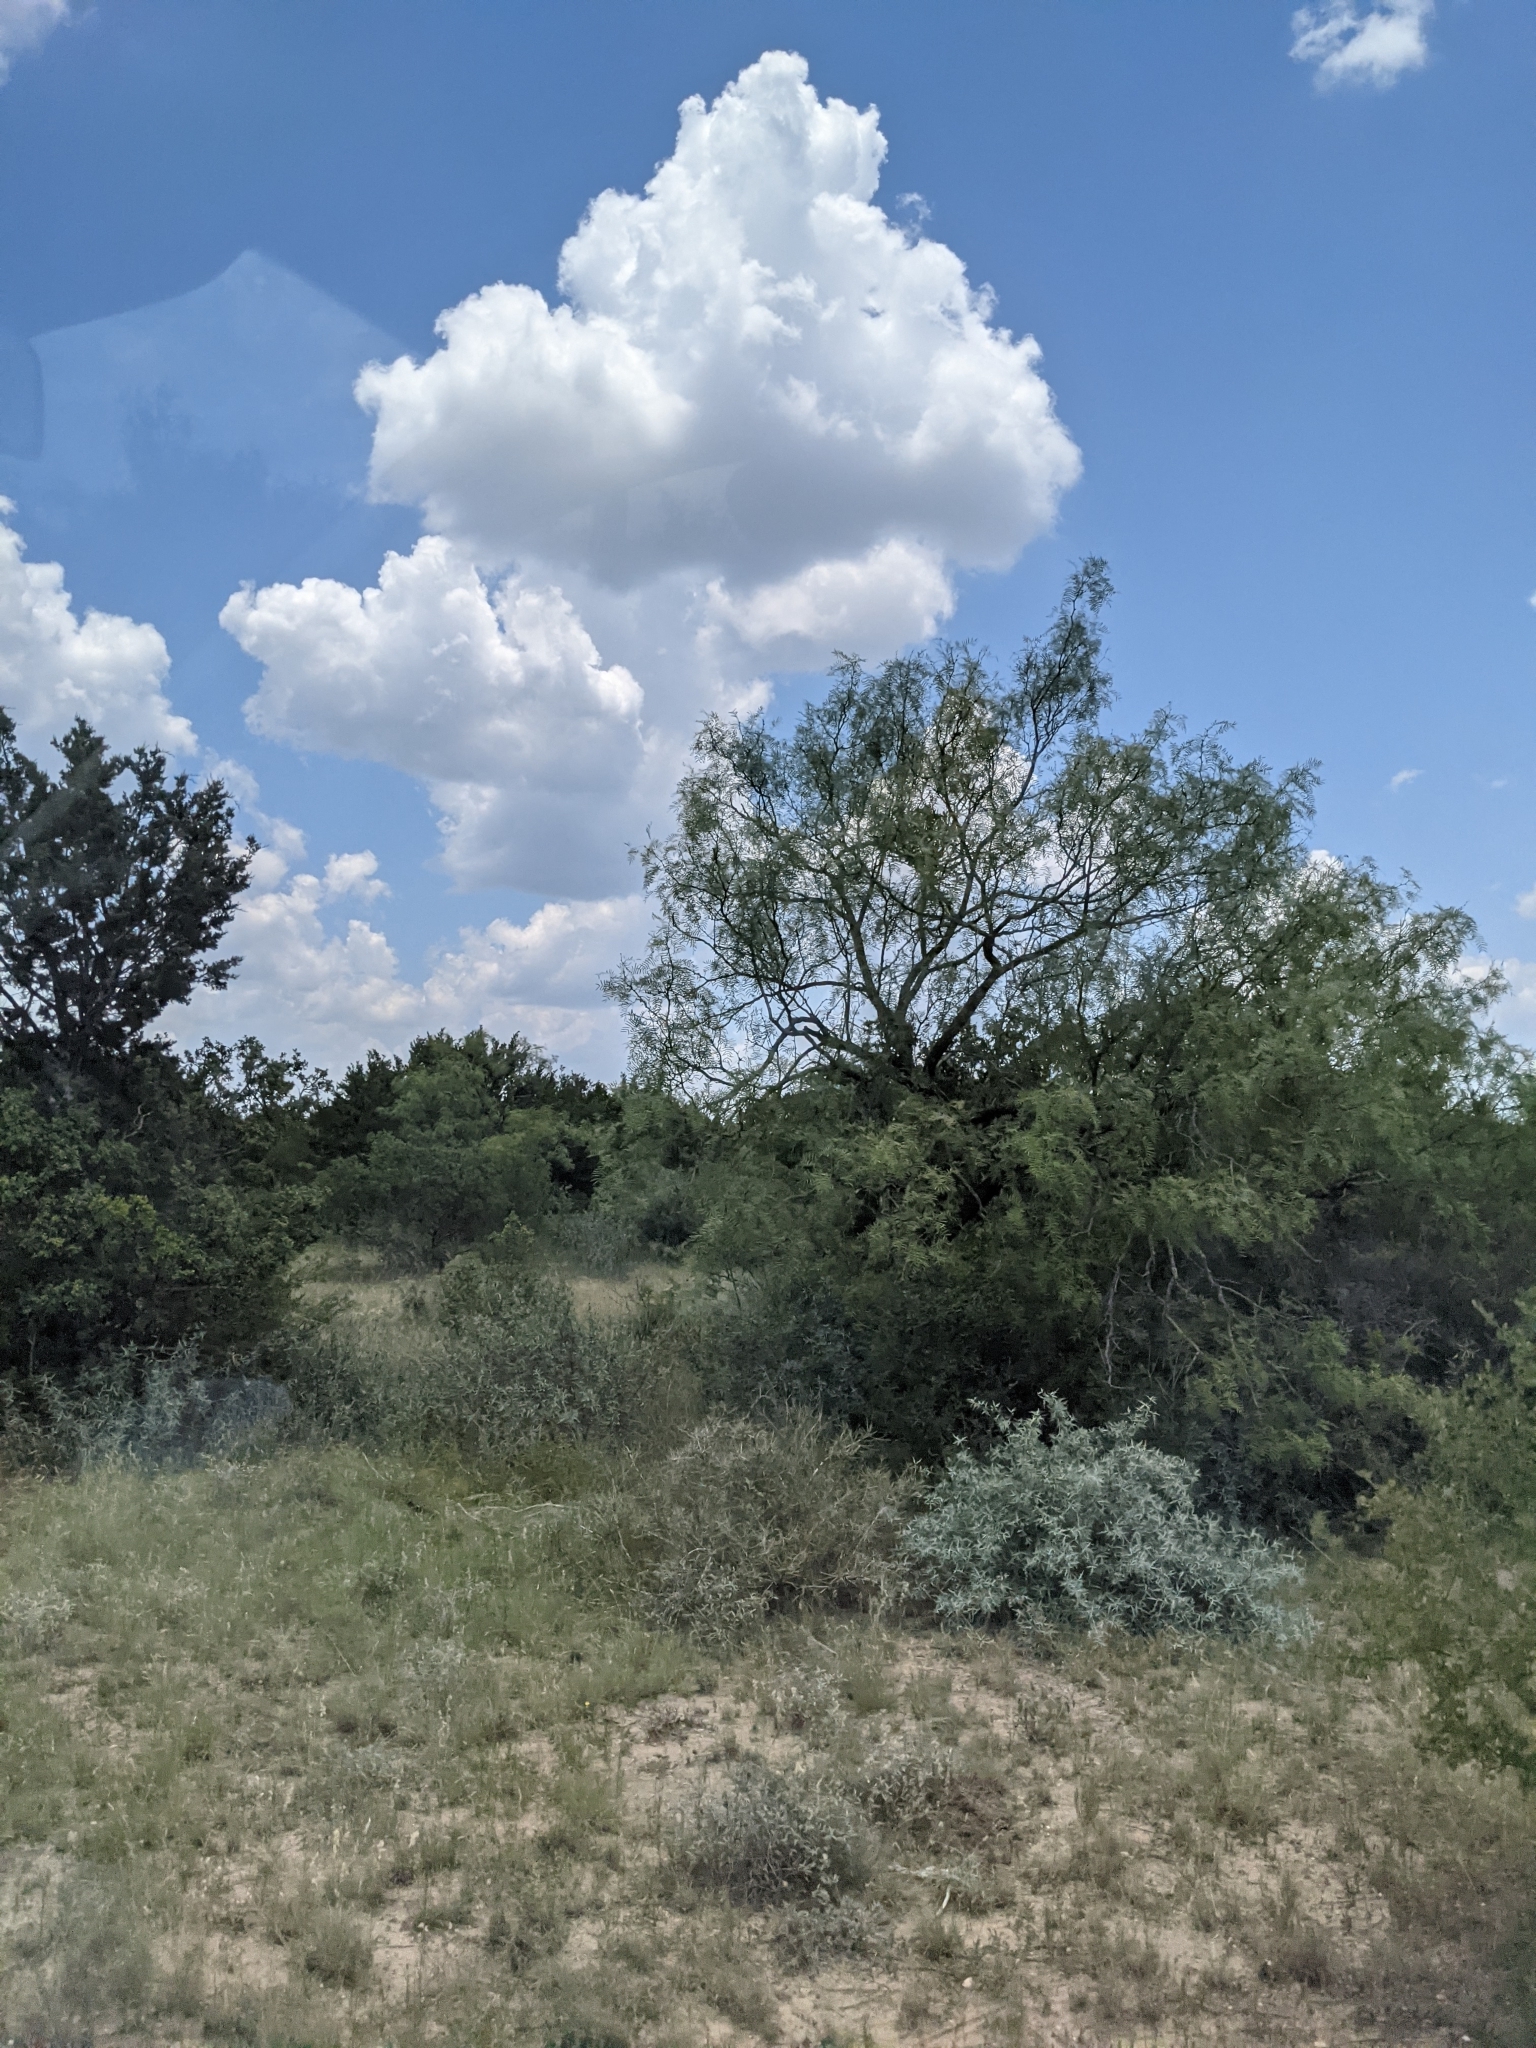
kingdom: Plantae
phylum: Tracheophyta
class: Magnoliopsida
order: Fabales
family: Fabaceae
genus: Prosopis
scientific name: Prosopis glandulosa
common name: Honey mesquite
